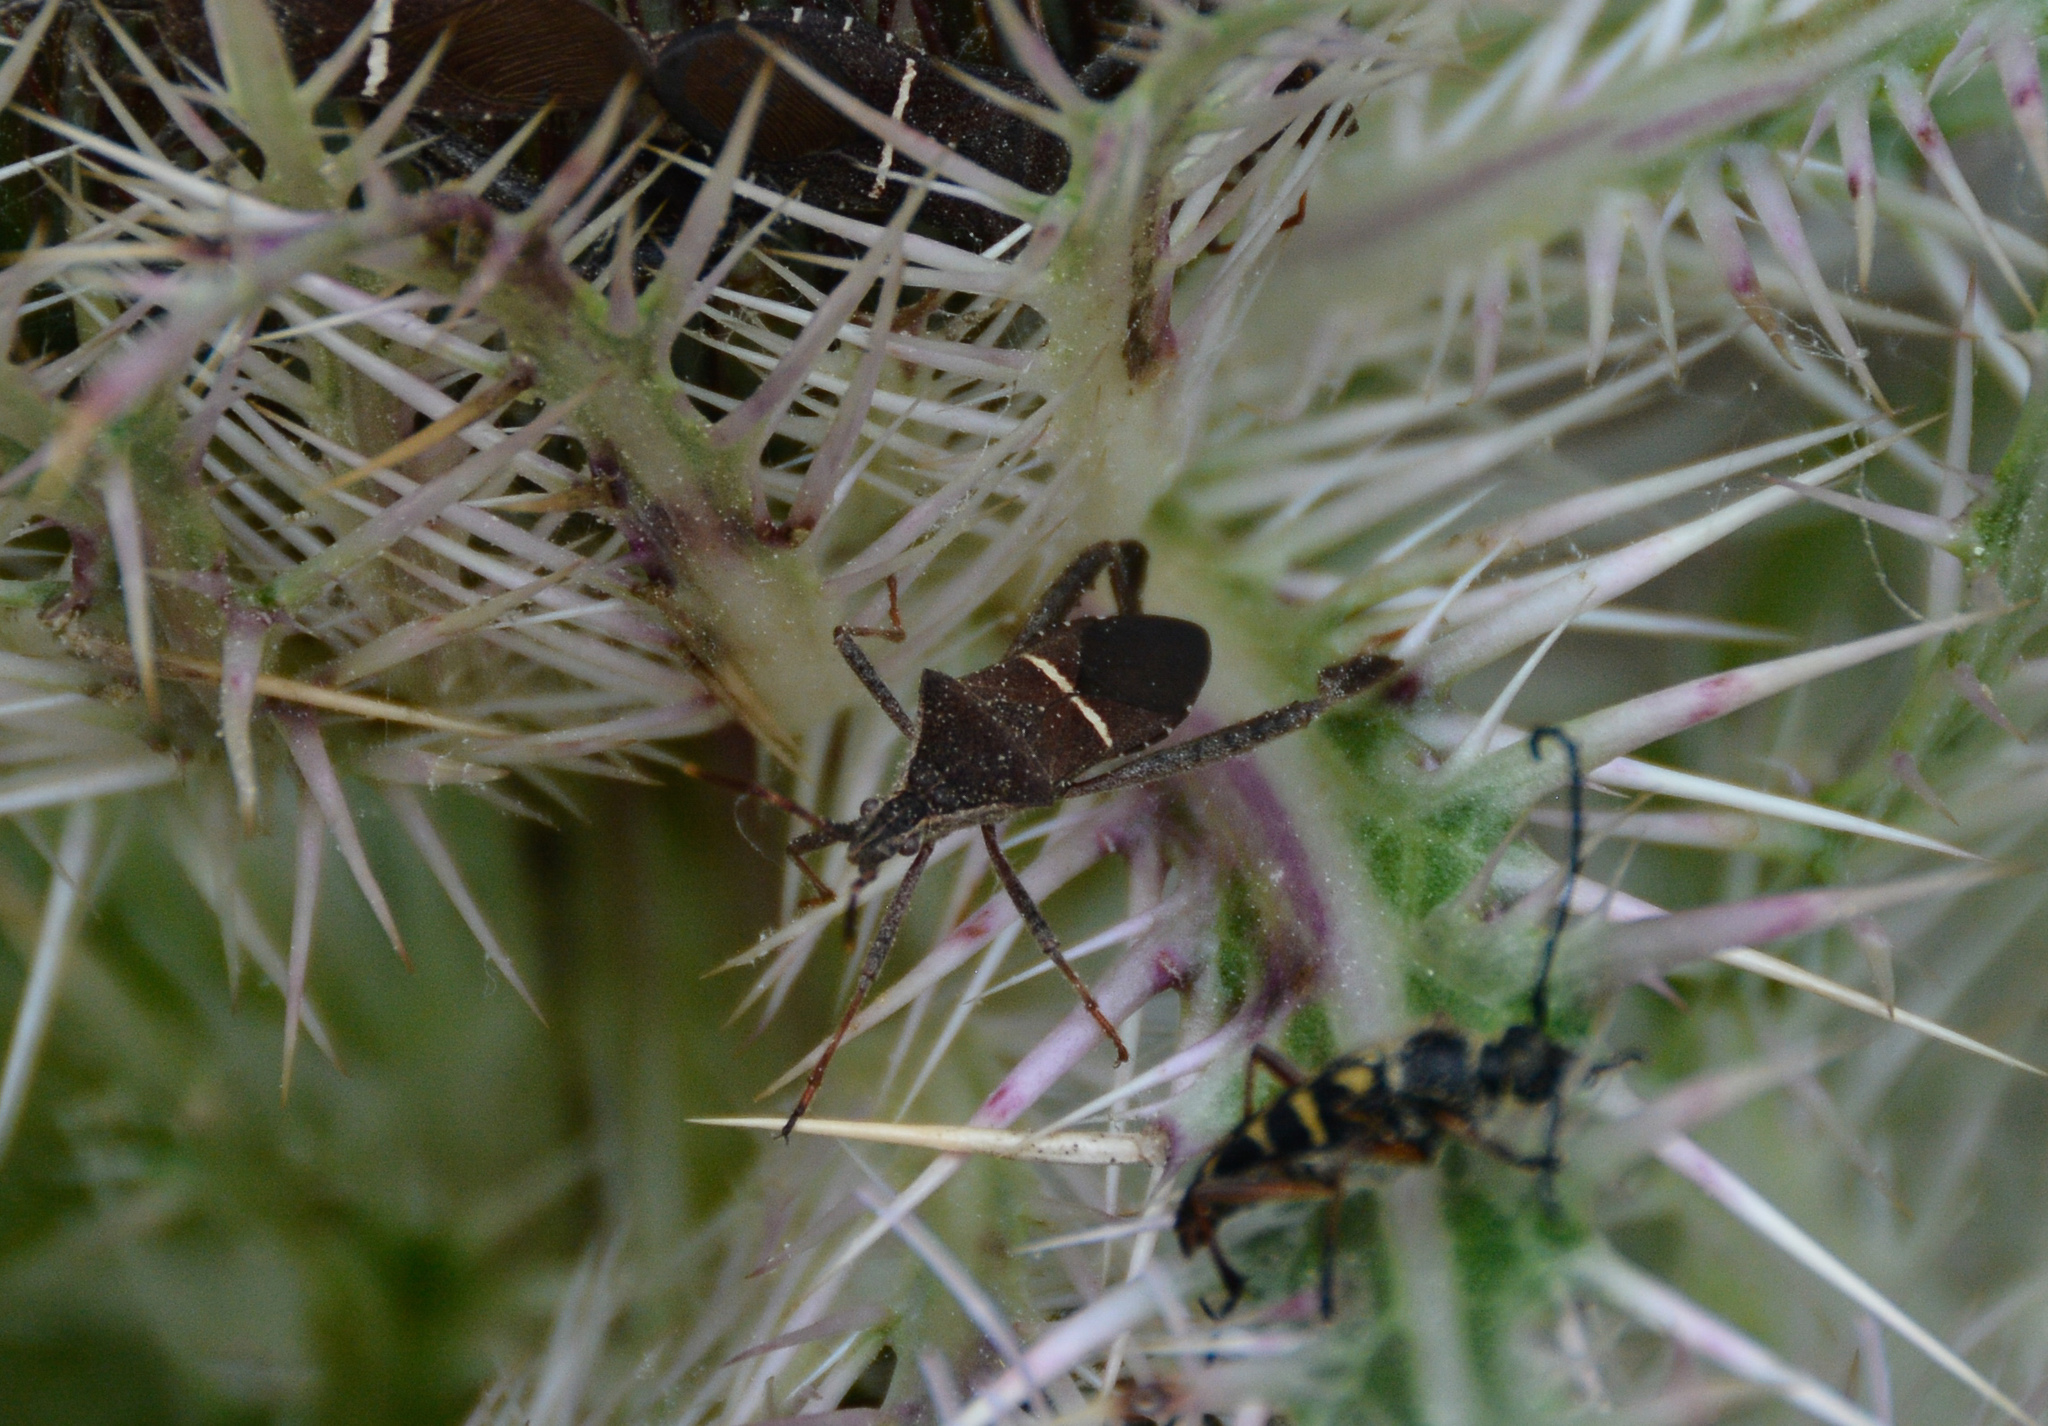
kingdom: Animalia
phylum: Arthropoda
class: Insecta
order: Hemiptera
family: Coreidae
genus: Leptoglossus
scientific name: Leptoglossus phyllopus
